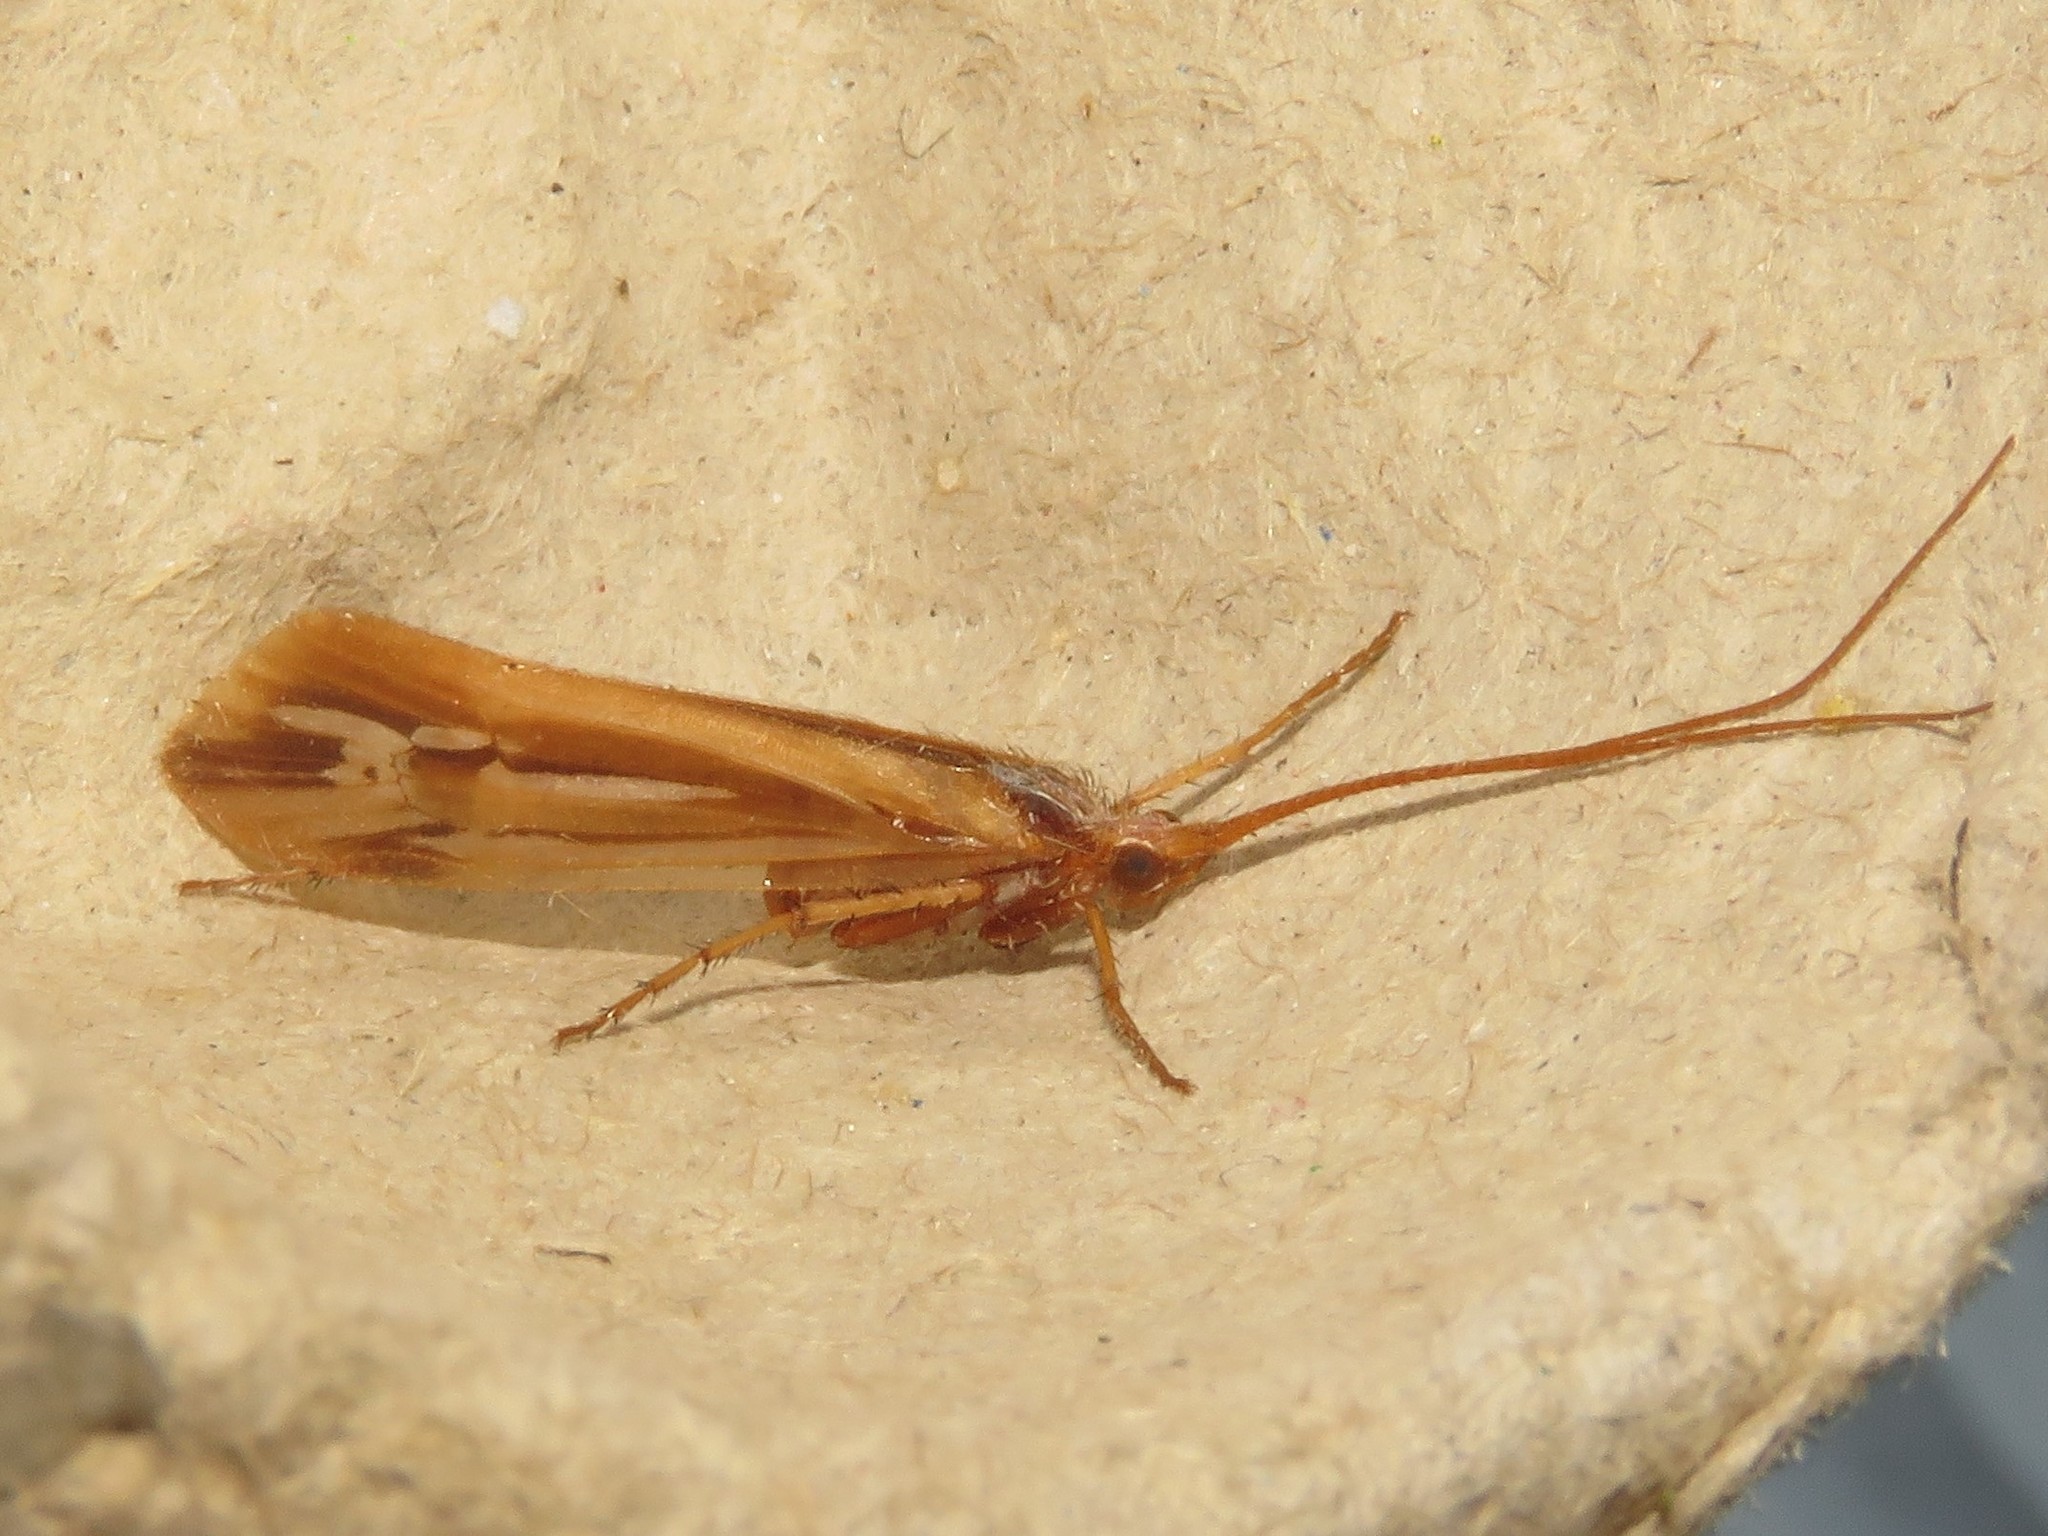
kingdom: Animalia
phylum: Arthropoda
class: Insecta
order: Trichoptera
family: Limnephilidae
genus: Limnephilus
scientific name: Limnephilus ornatus
